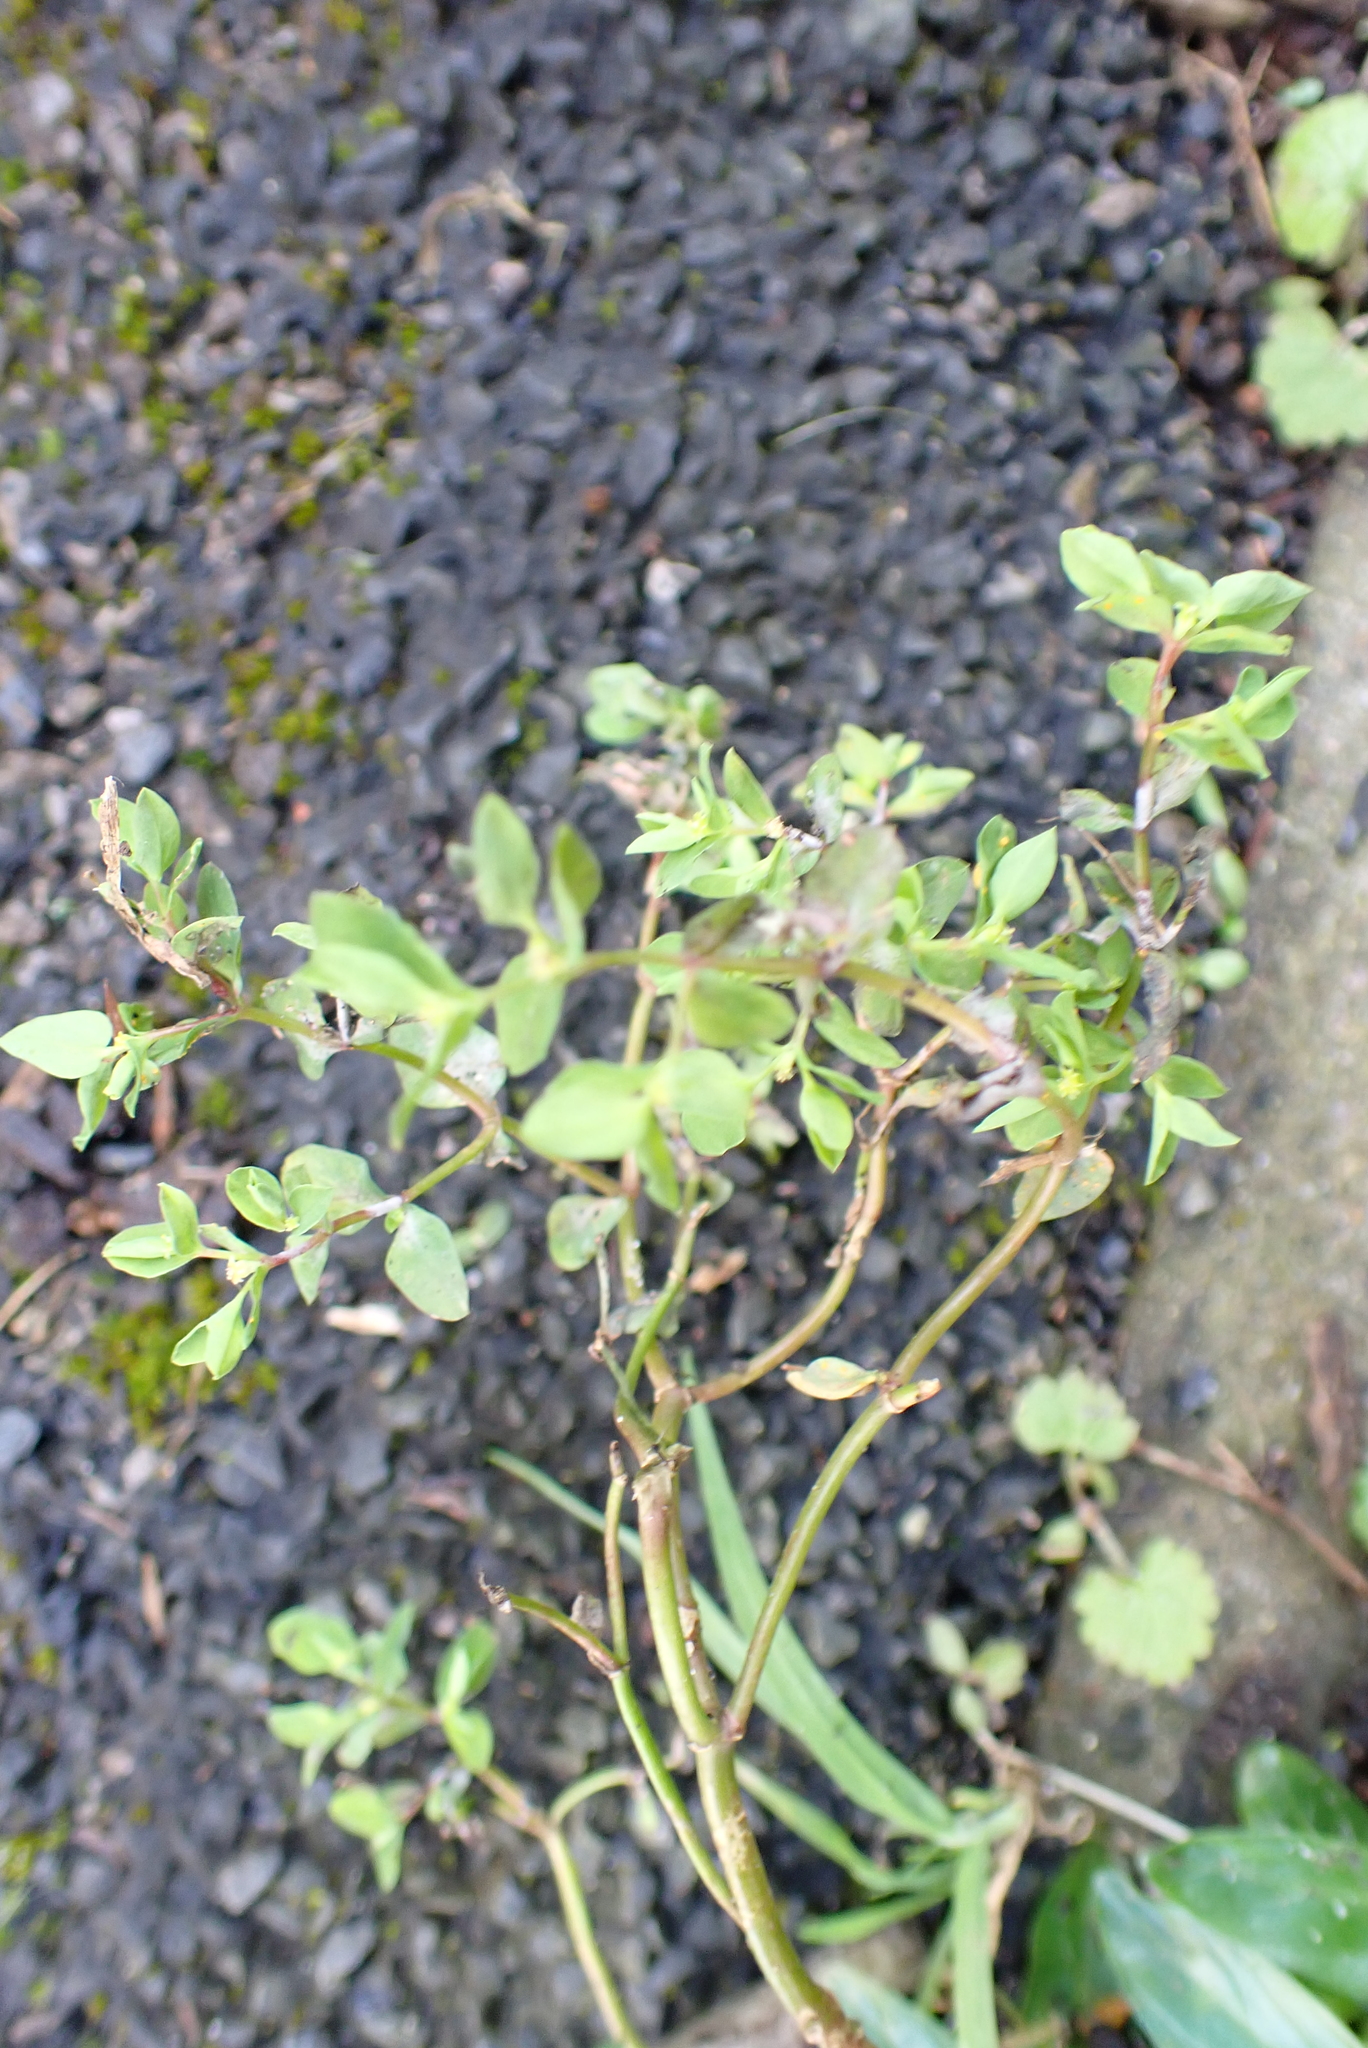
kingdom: Plantae
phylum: Tracheophyta
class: Magnoliopsida
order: Malpighiales
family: Euphorbiaceae
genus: Euphorbia
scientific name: Euphorbia peplus
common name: Petty spurge
